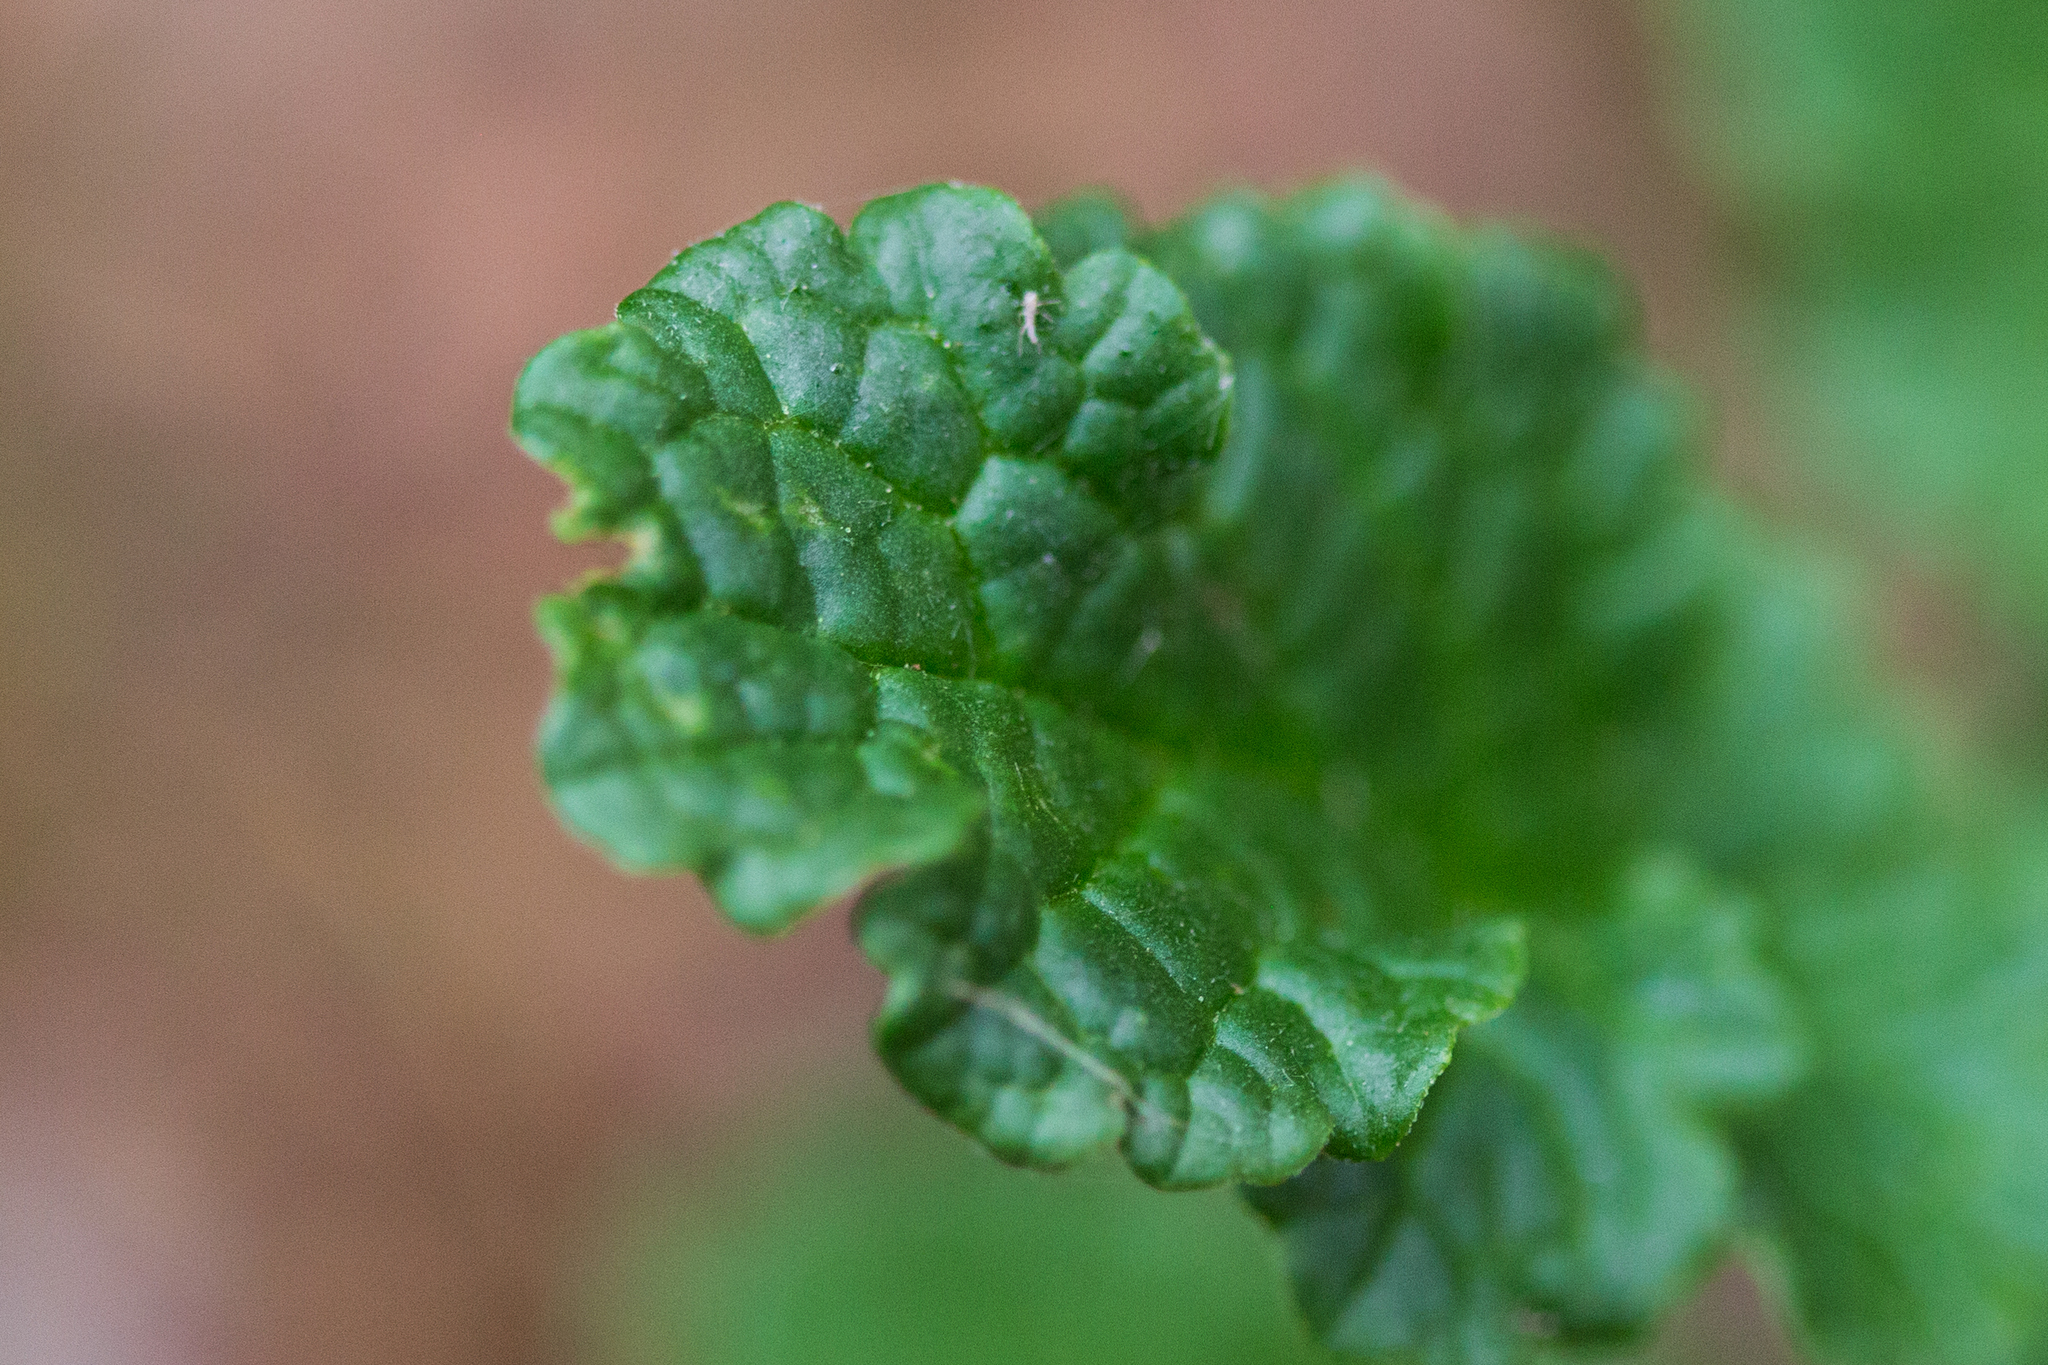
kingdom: Plantae
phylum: Tracheophyta
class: Magnoliopsida
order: Asterales
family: Asteraceae
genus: Jacobaea
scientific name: Jacobaea vulgaris
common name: Stinking willie
